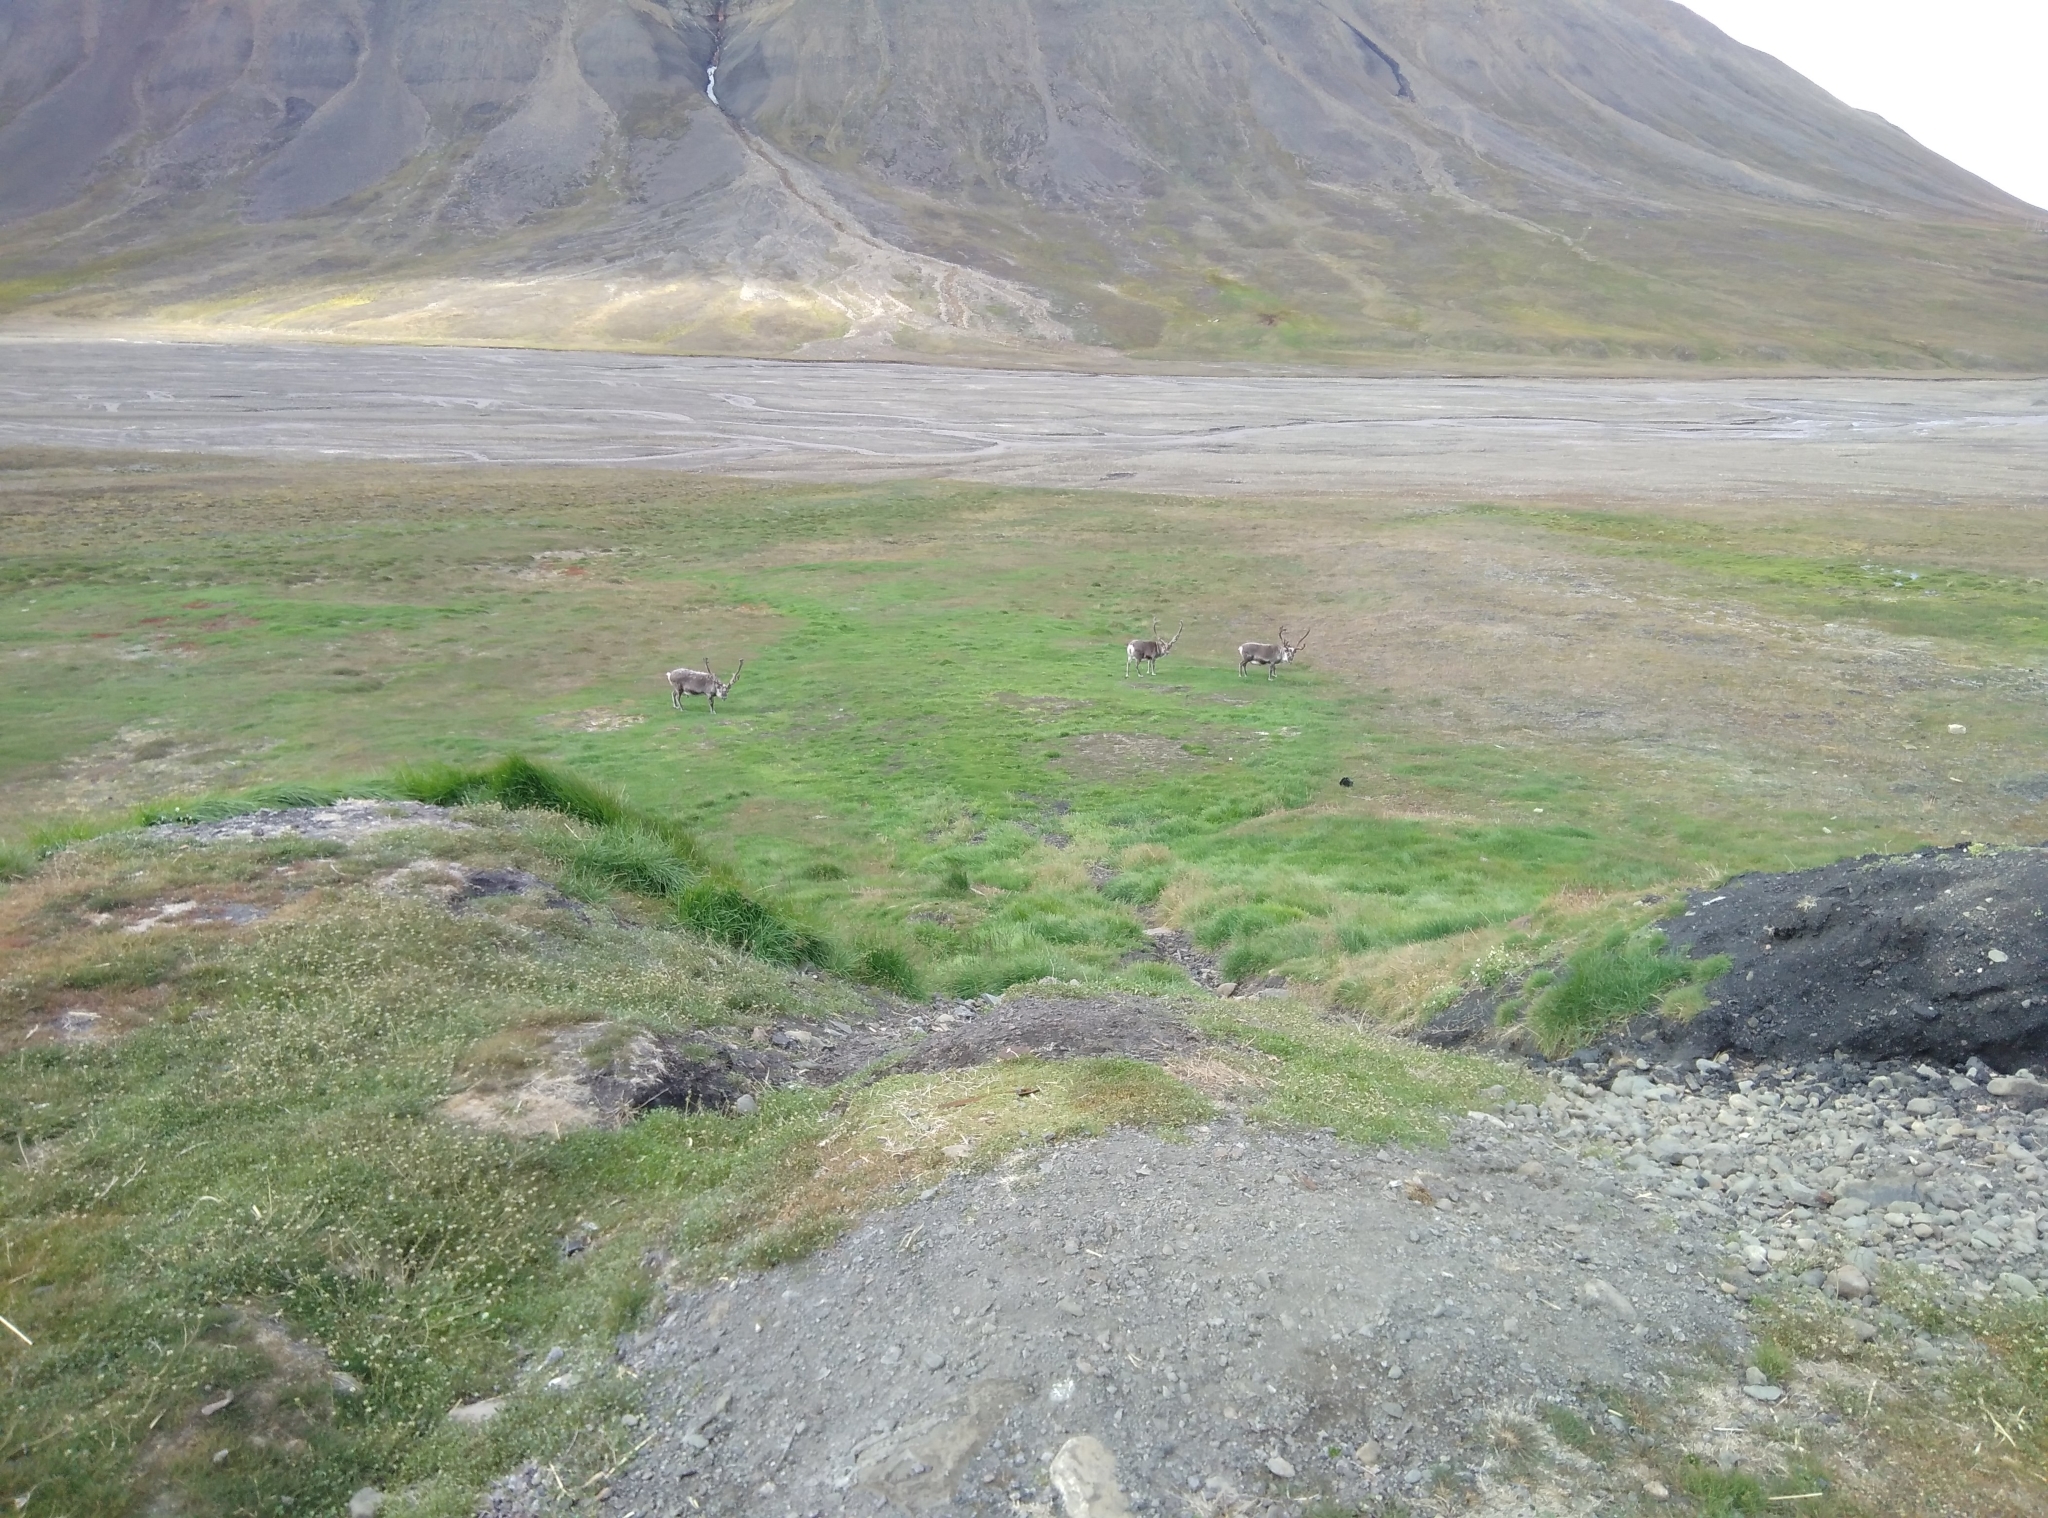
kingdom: Animalia
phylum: Chordata
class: Mammalia
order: Artiodactyla
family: Cervidae
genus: Rangifer
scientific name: Rangifer tarandus
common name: Reindeer
